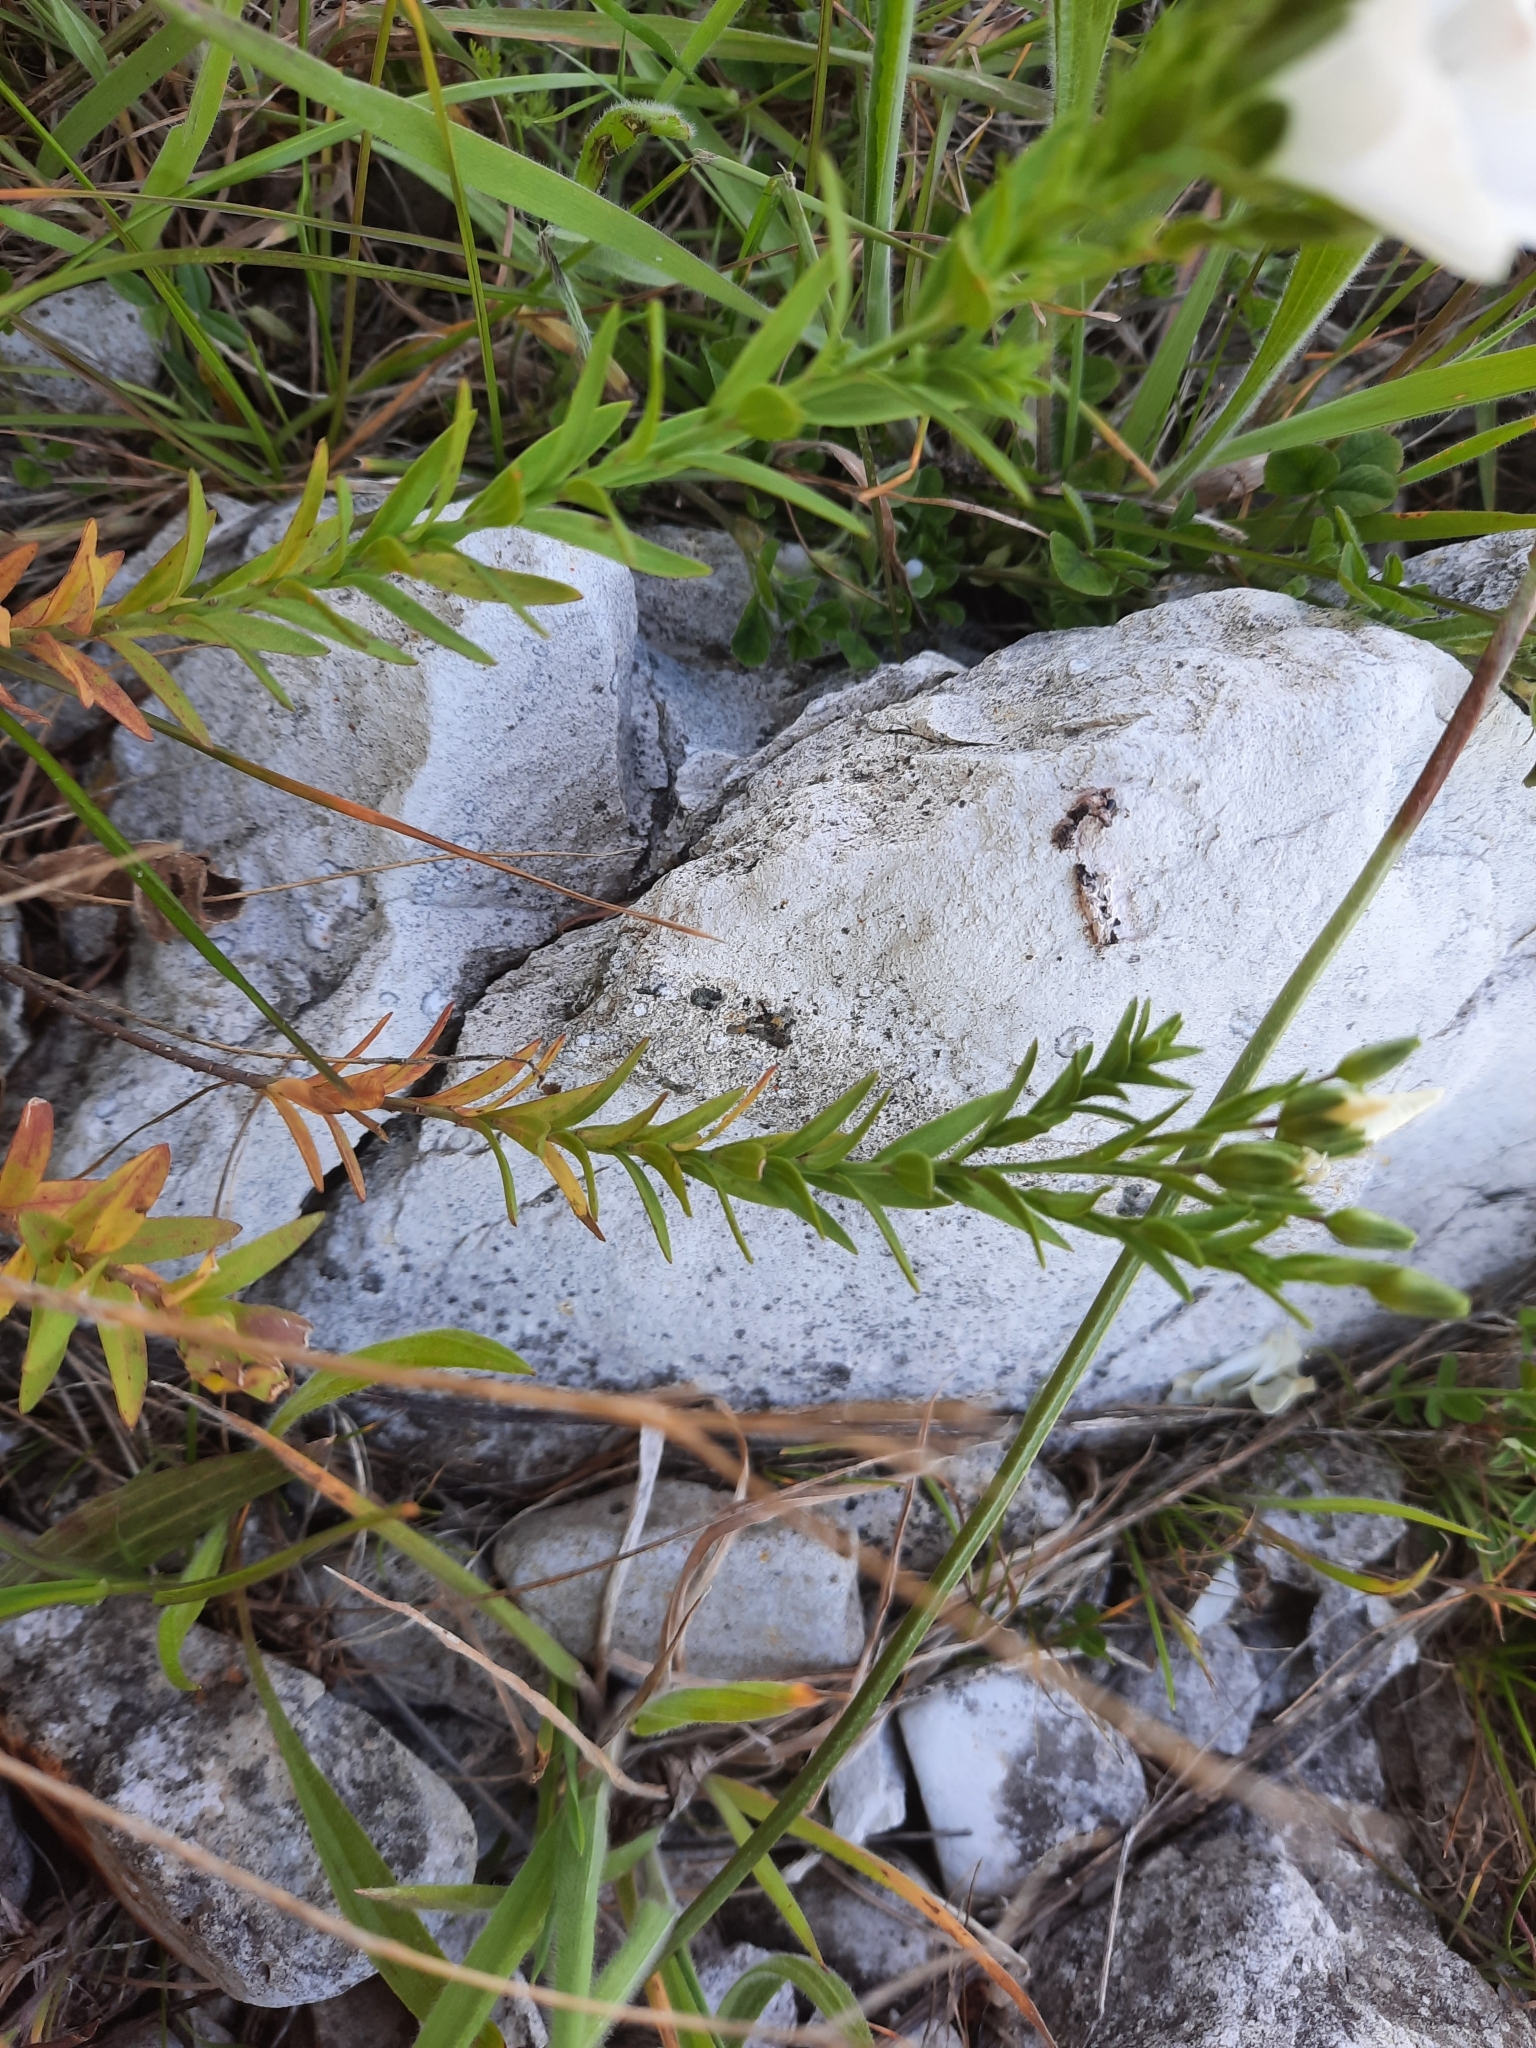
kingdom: Plantae
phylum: Tracheophyta
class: Magnoliopsida
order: Malpighiales
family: Linaceae
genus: Linum
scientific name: Linum monogynum
